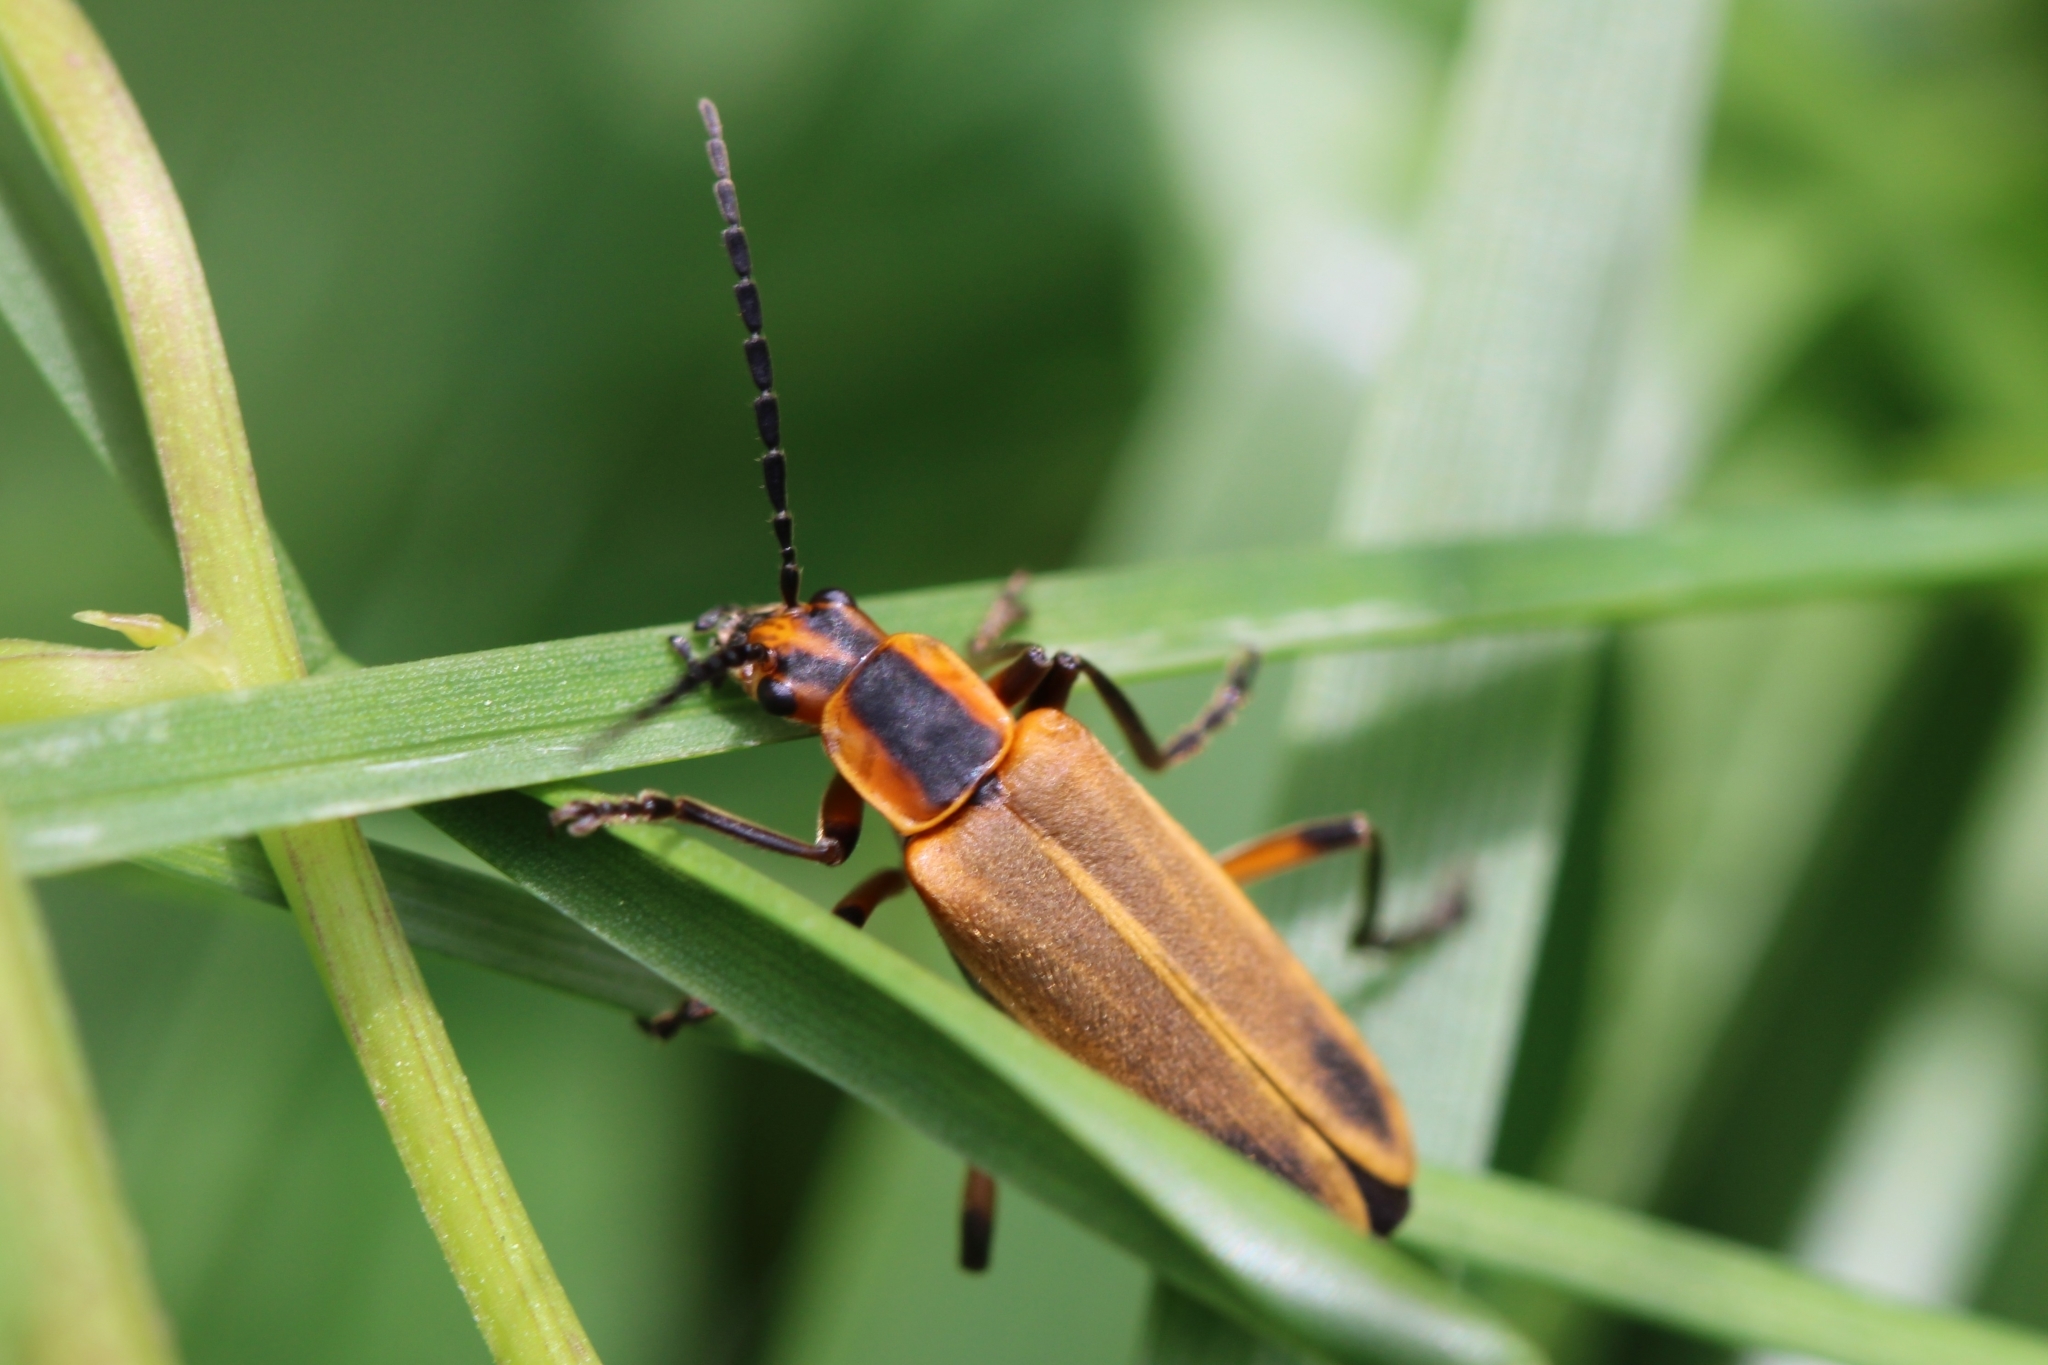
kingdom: Animalia
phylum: Arthropoda
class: Insecta
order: Coleoptera
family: Cantharidae
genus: Chauliognathus
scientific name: Chauliognathus marginatus
